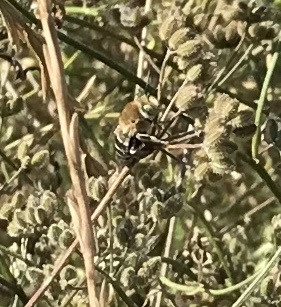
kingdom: Animalia
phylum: Arthropoda
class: Insecta
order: Hymenoptera
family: Apidae
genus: Anthophora
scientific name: Anthophora californica
